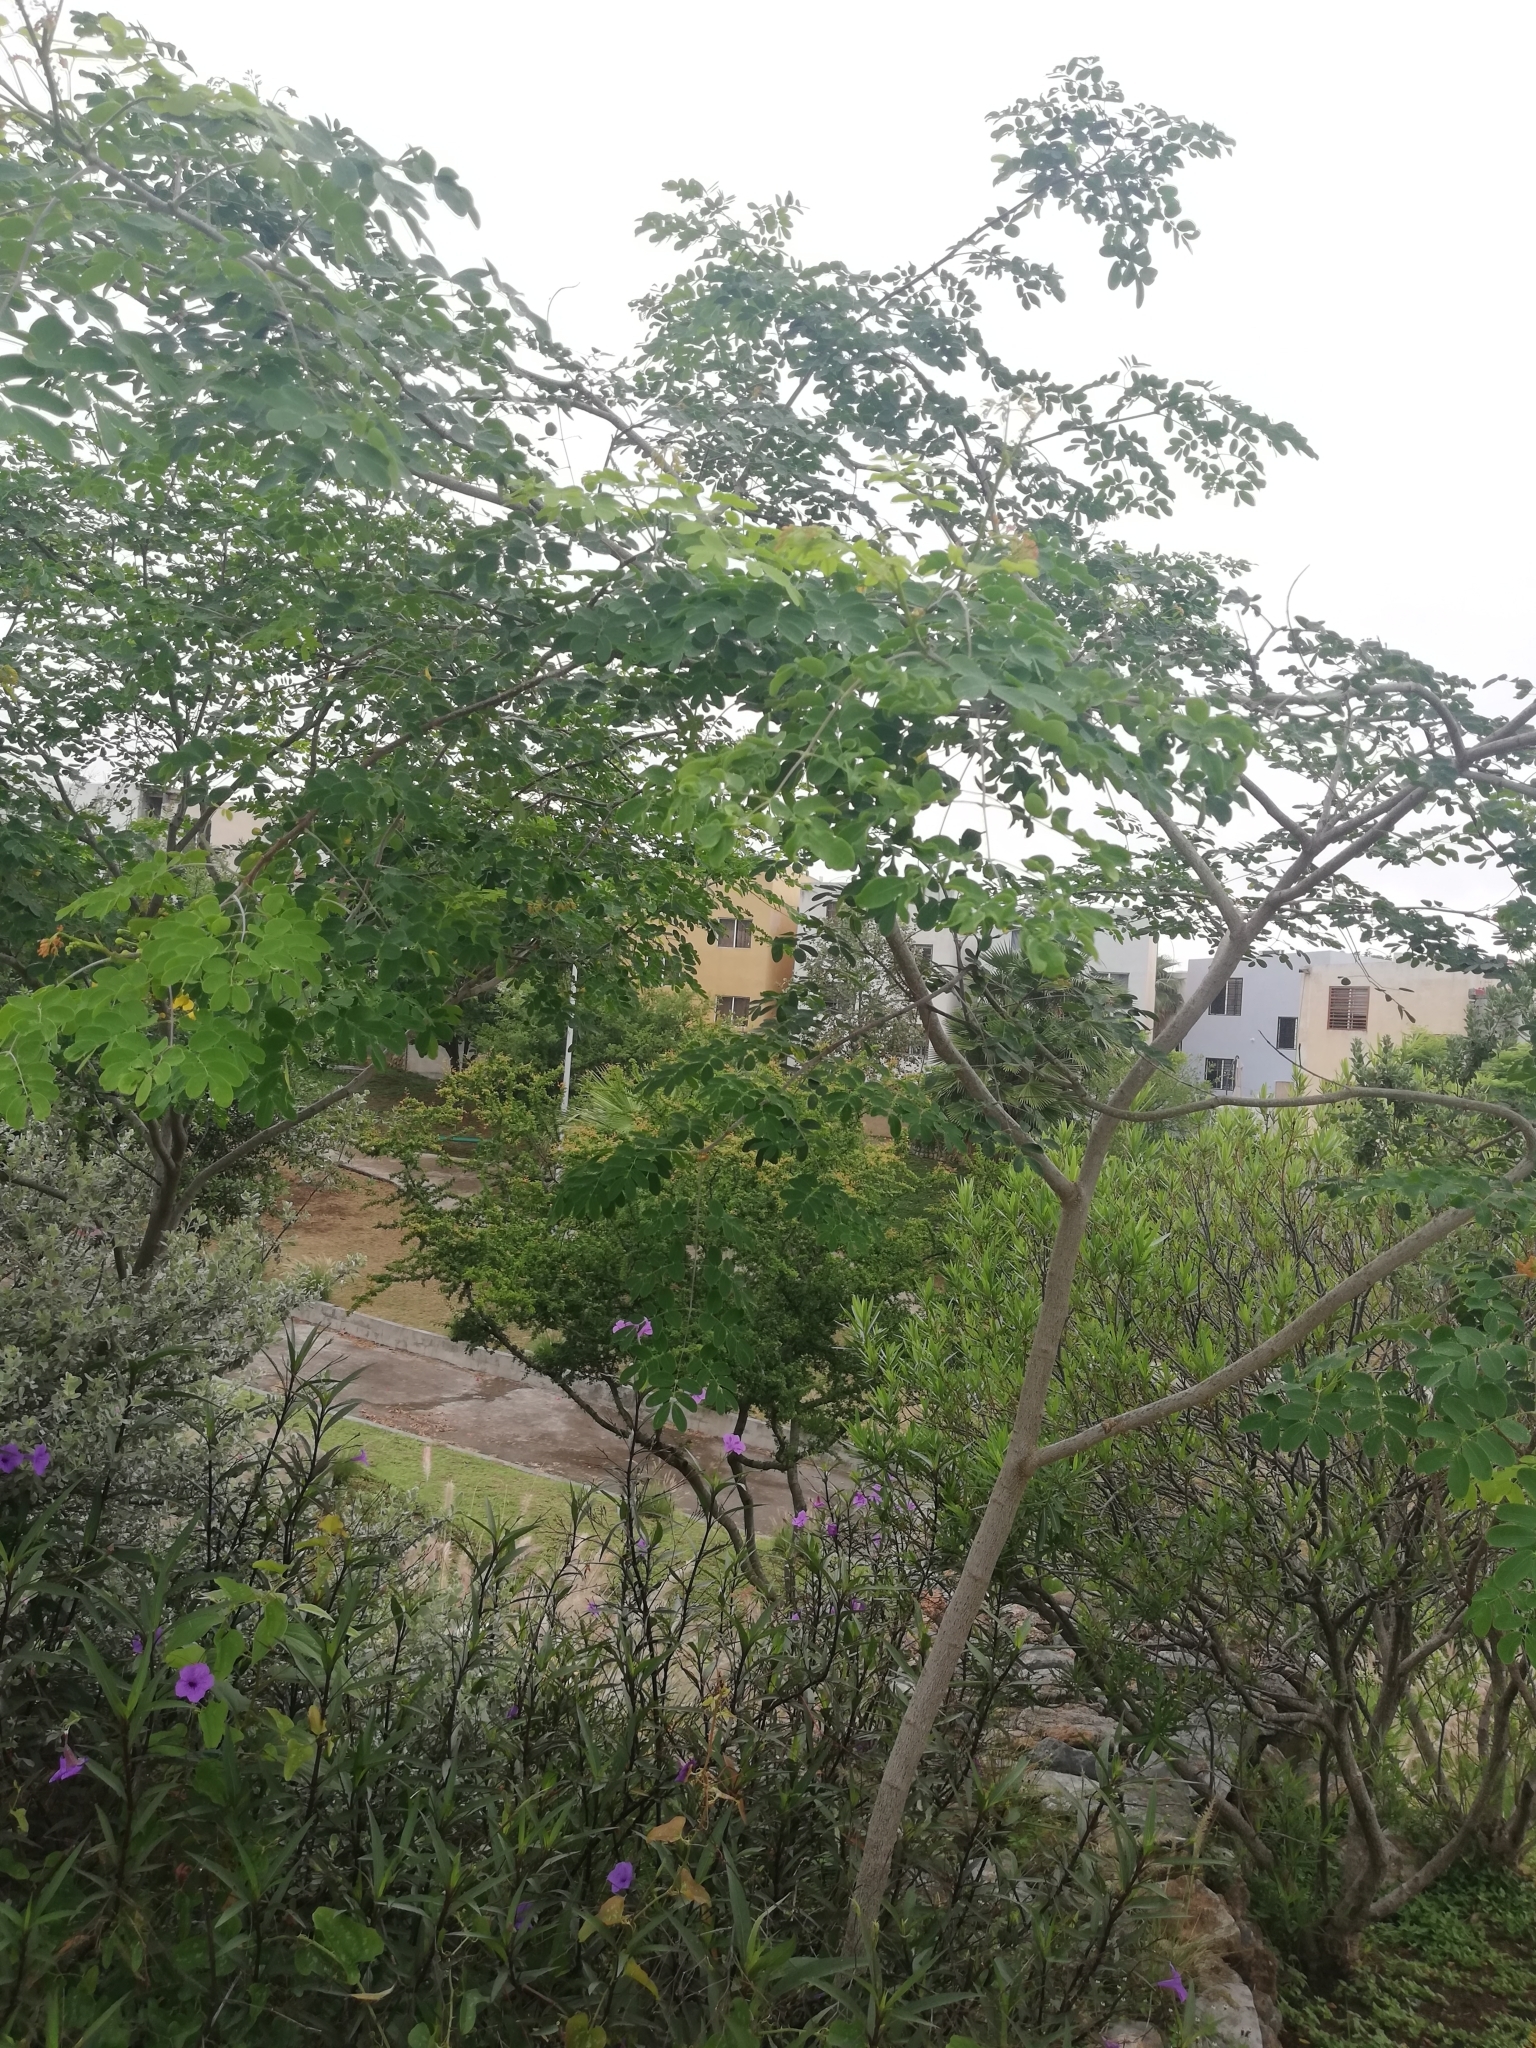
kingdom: Plantae
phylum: Tracheophyta
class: Magnoliopsida
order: Fabales
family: Fabaceae
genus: Erythrostemon
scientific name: Erythrostemon mexicanus
